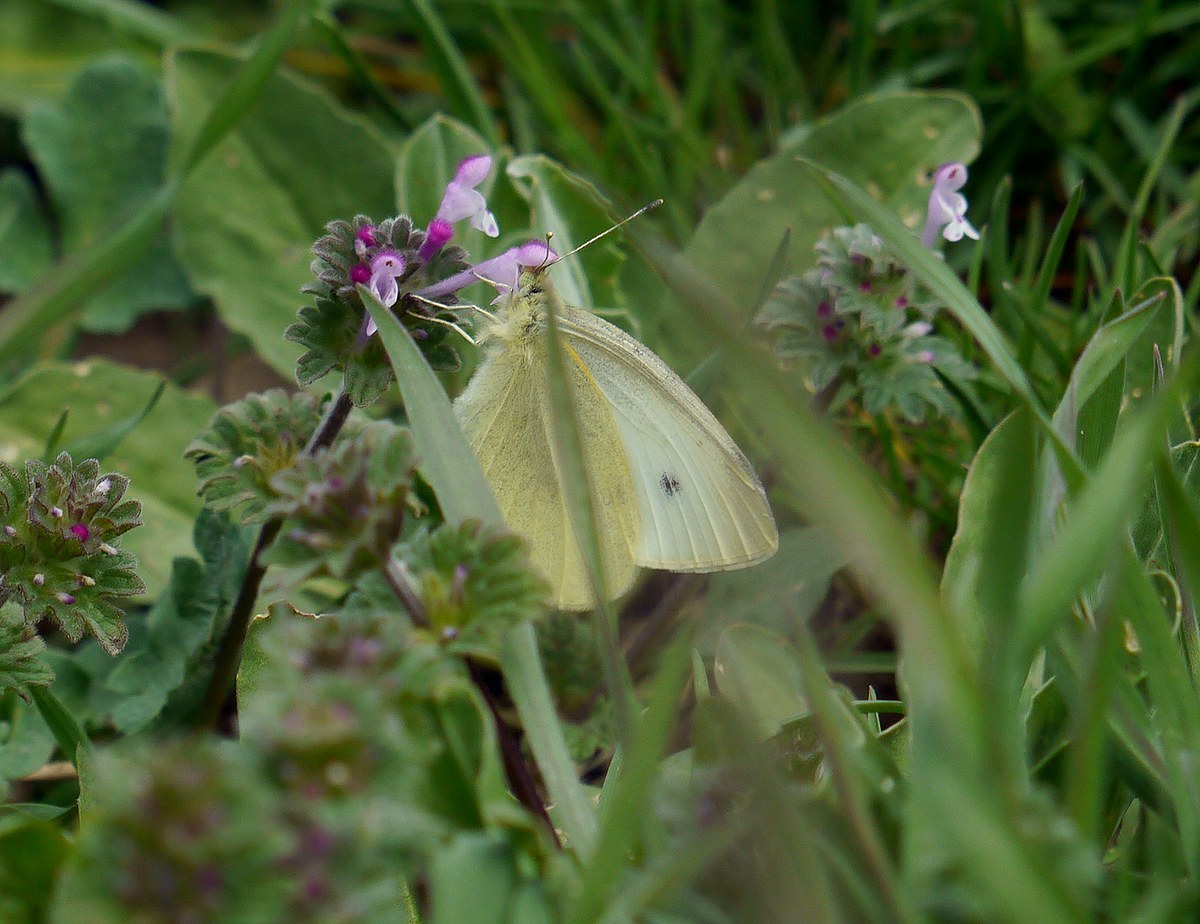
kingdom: Animalia
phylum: Arthropoda
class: Insecta
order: Lepidoptera
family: Pieridae
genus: Pieris
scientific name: Pieris rapae
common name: Small white
